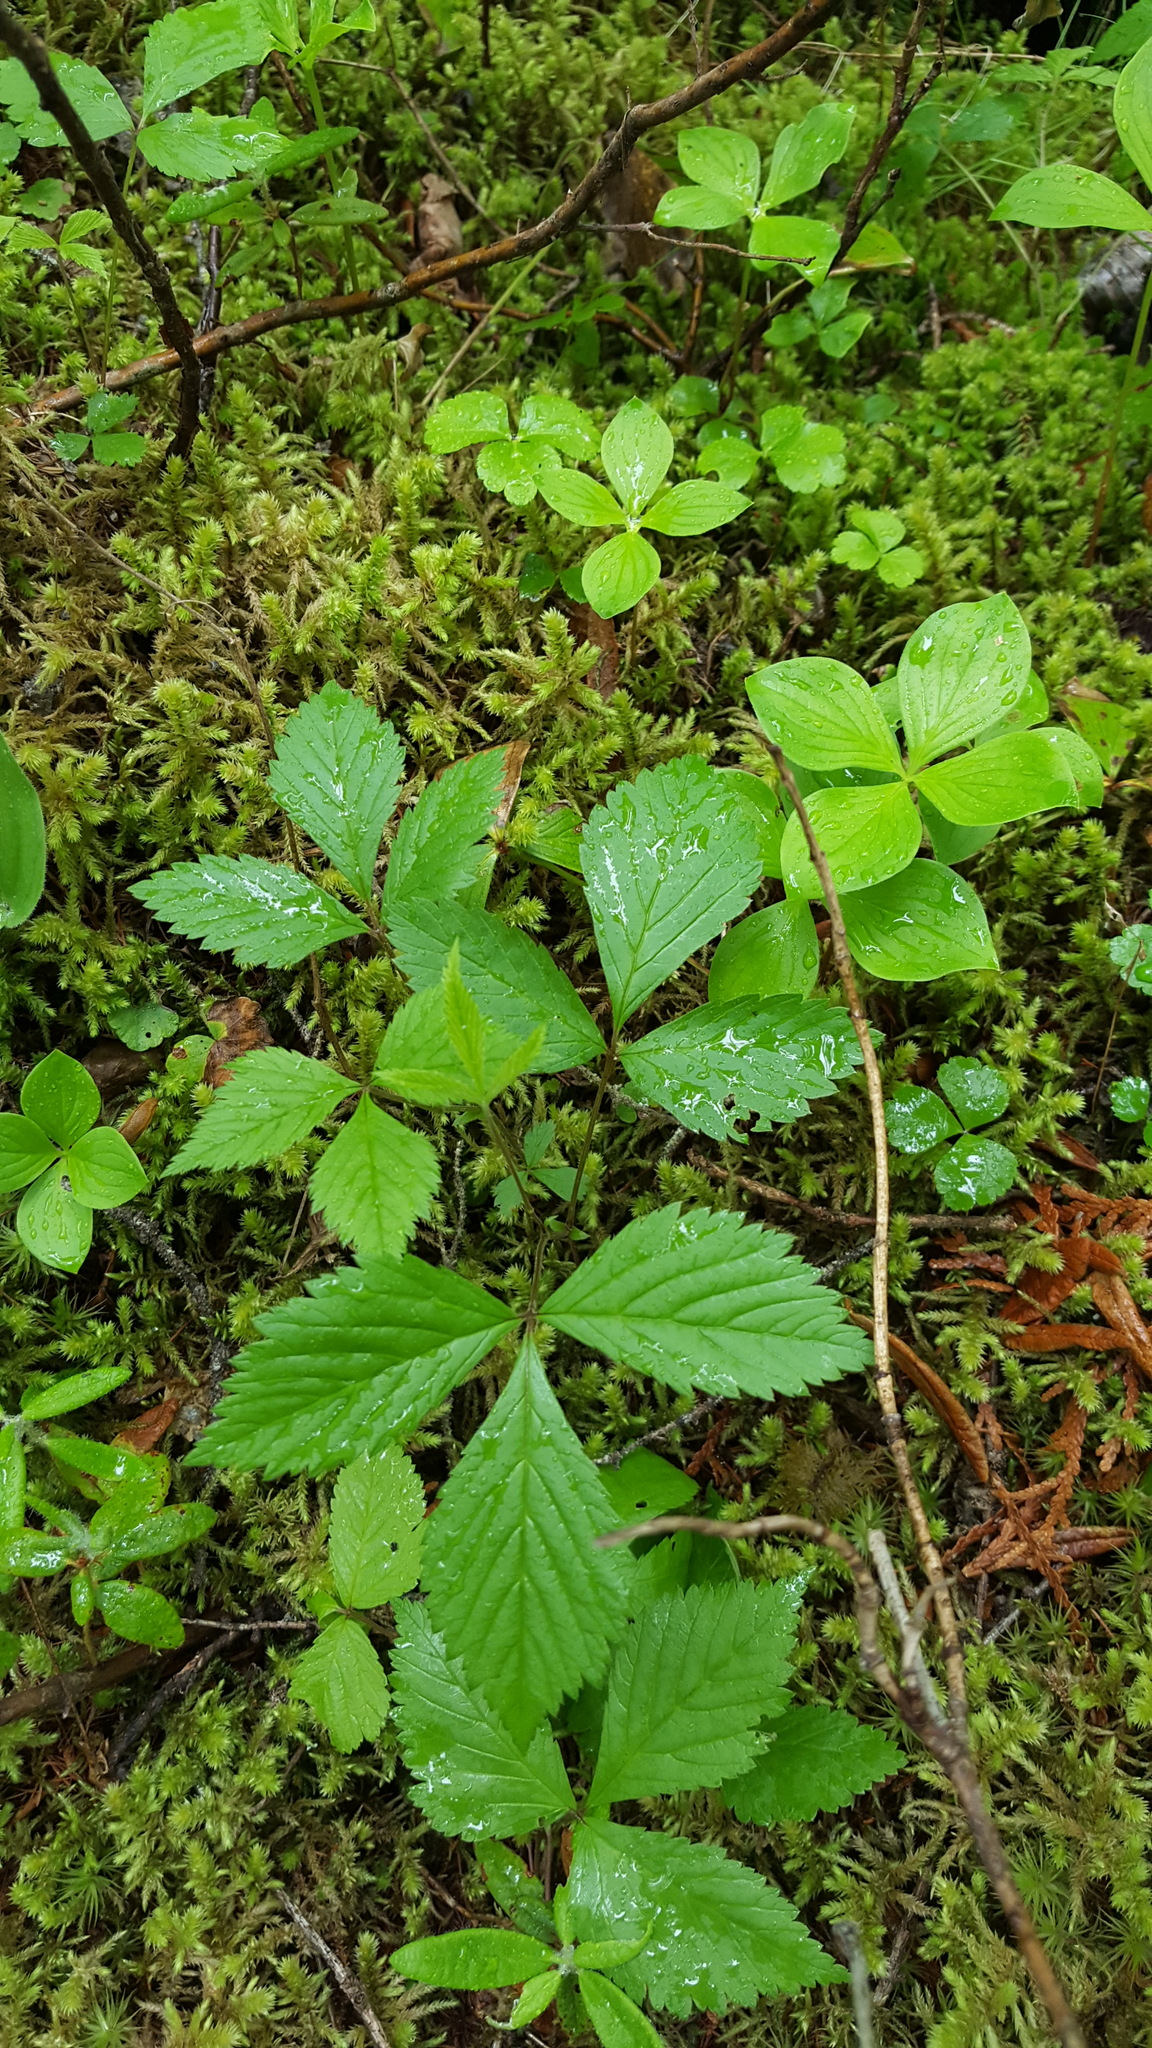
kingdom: Plantae
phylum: Tracheophyta
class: Magnoliopsida
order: Rosales
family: Rosaceae
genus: Rubus
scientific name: Rubus pubescens
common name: Dwarf raspberry
